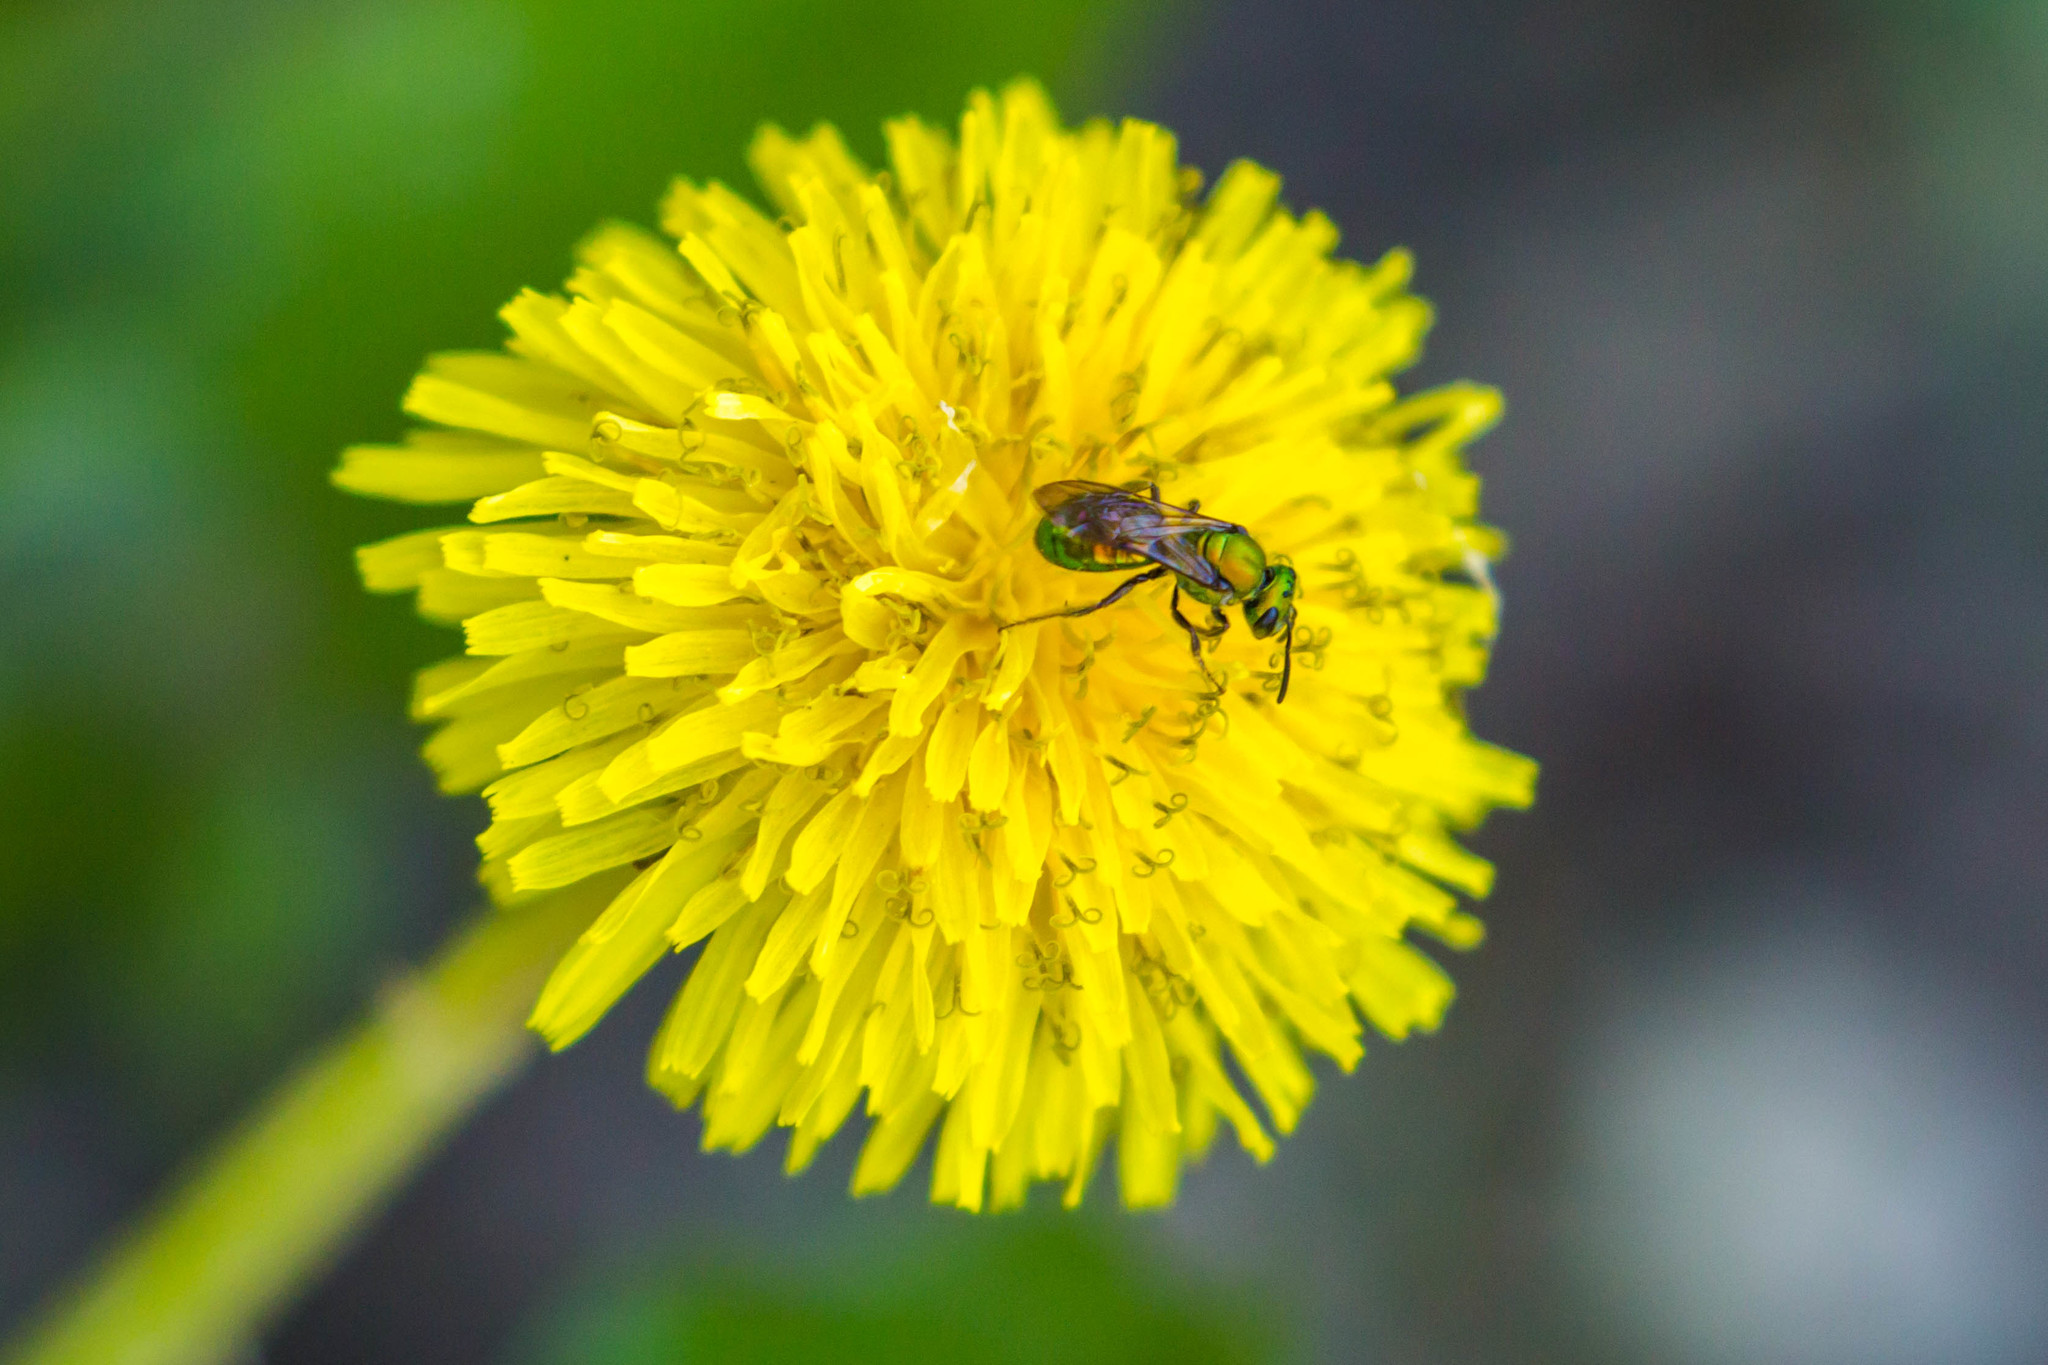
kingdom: Animalia
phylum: Arthropoda
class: Insecta
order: Hymenoptera
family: Halictidae
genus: Augochlora
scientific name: Augochlora pura
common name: Pure green sweat bee
